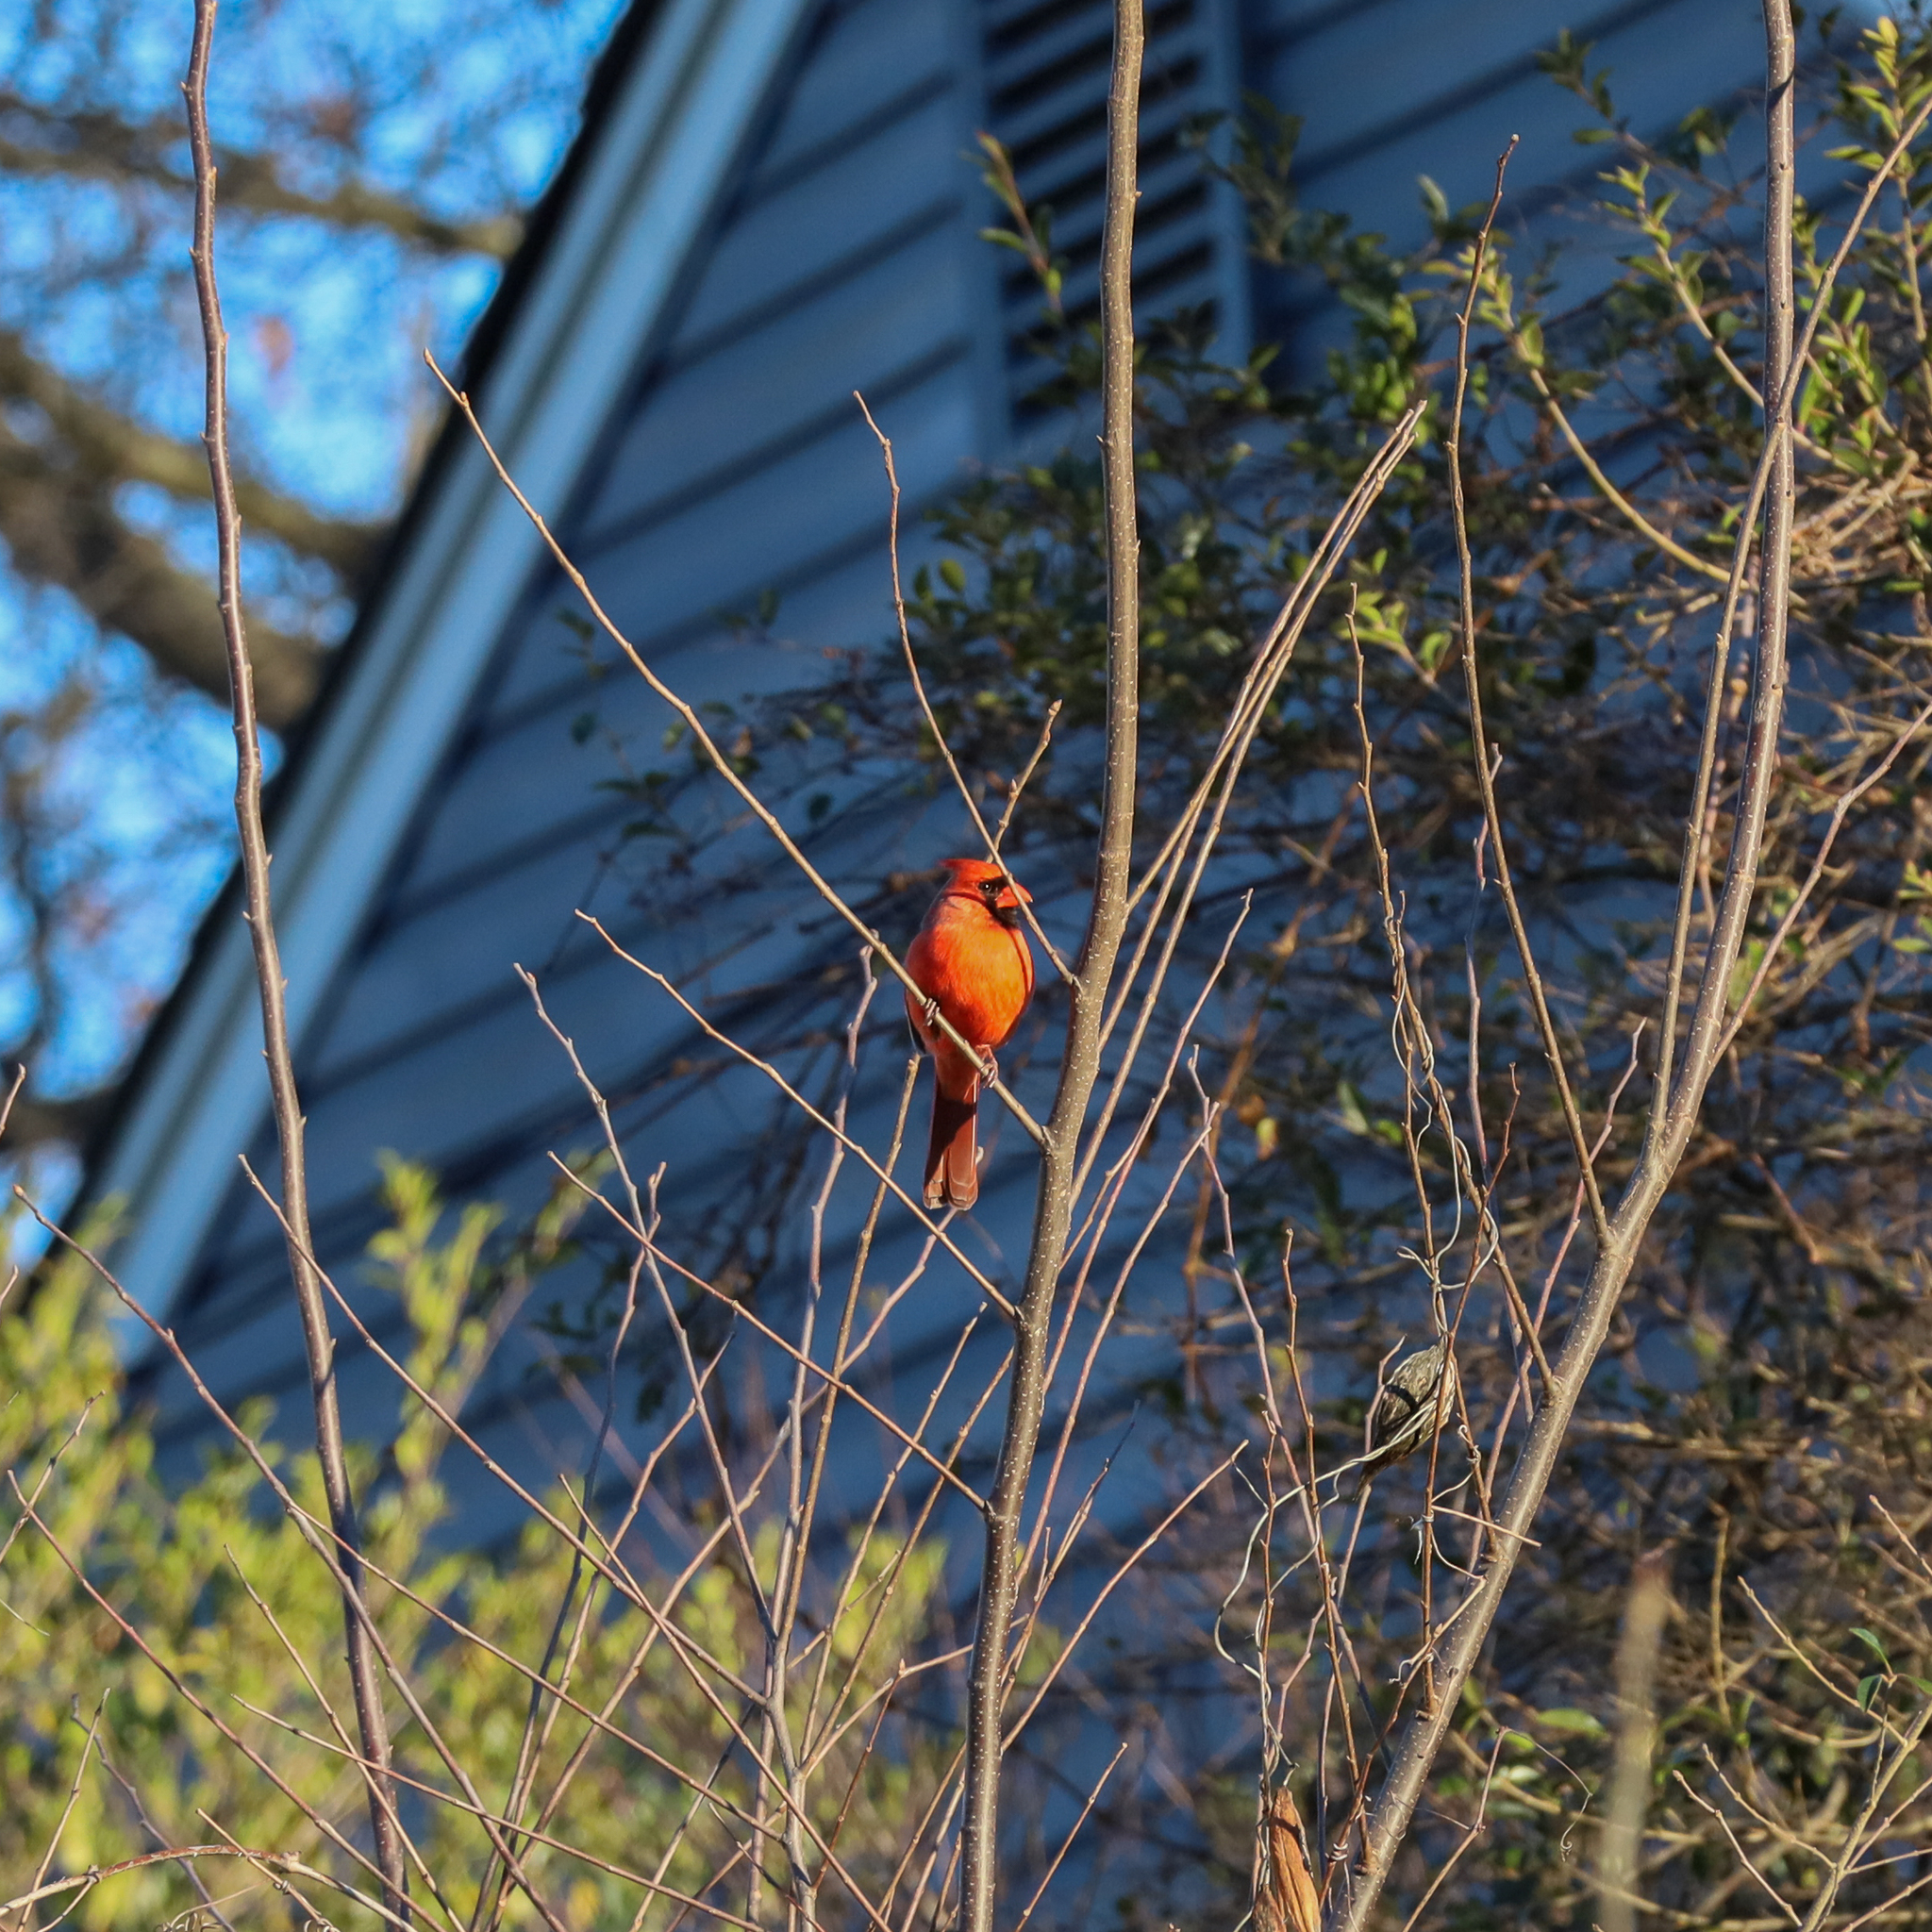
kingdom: Animalia
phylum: Chordata
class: Aves
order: Passeriformes
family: Cardinalidae
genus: Cardinalis
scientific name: Cardinalis cardinalis
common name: Northern cardinal
